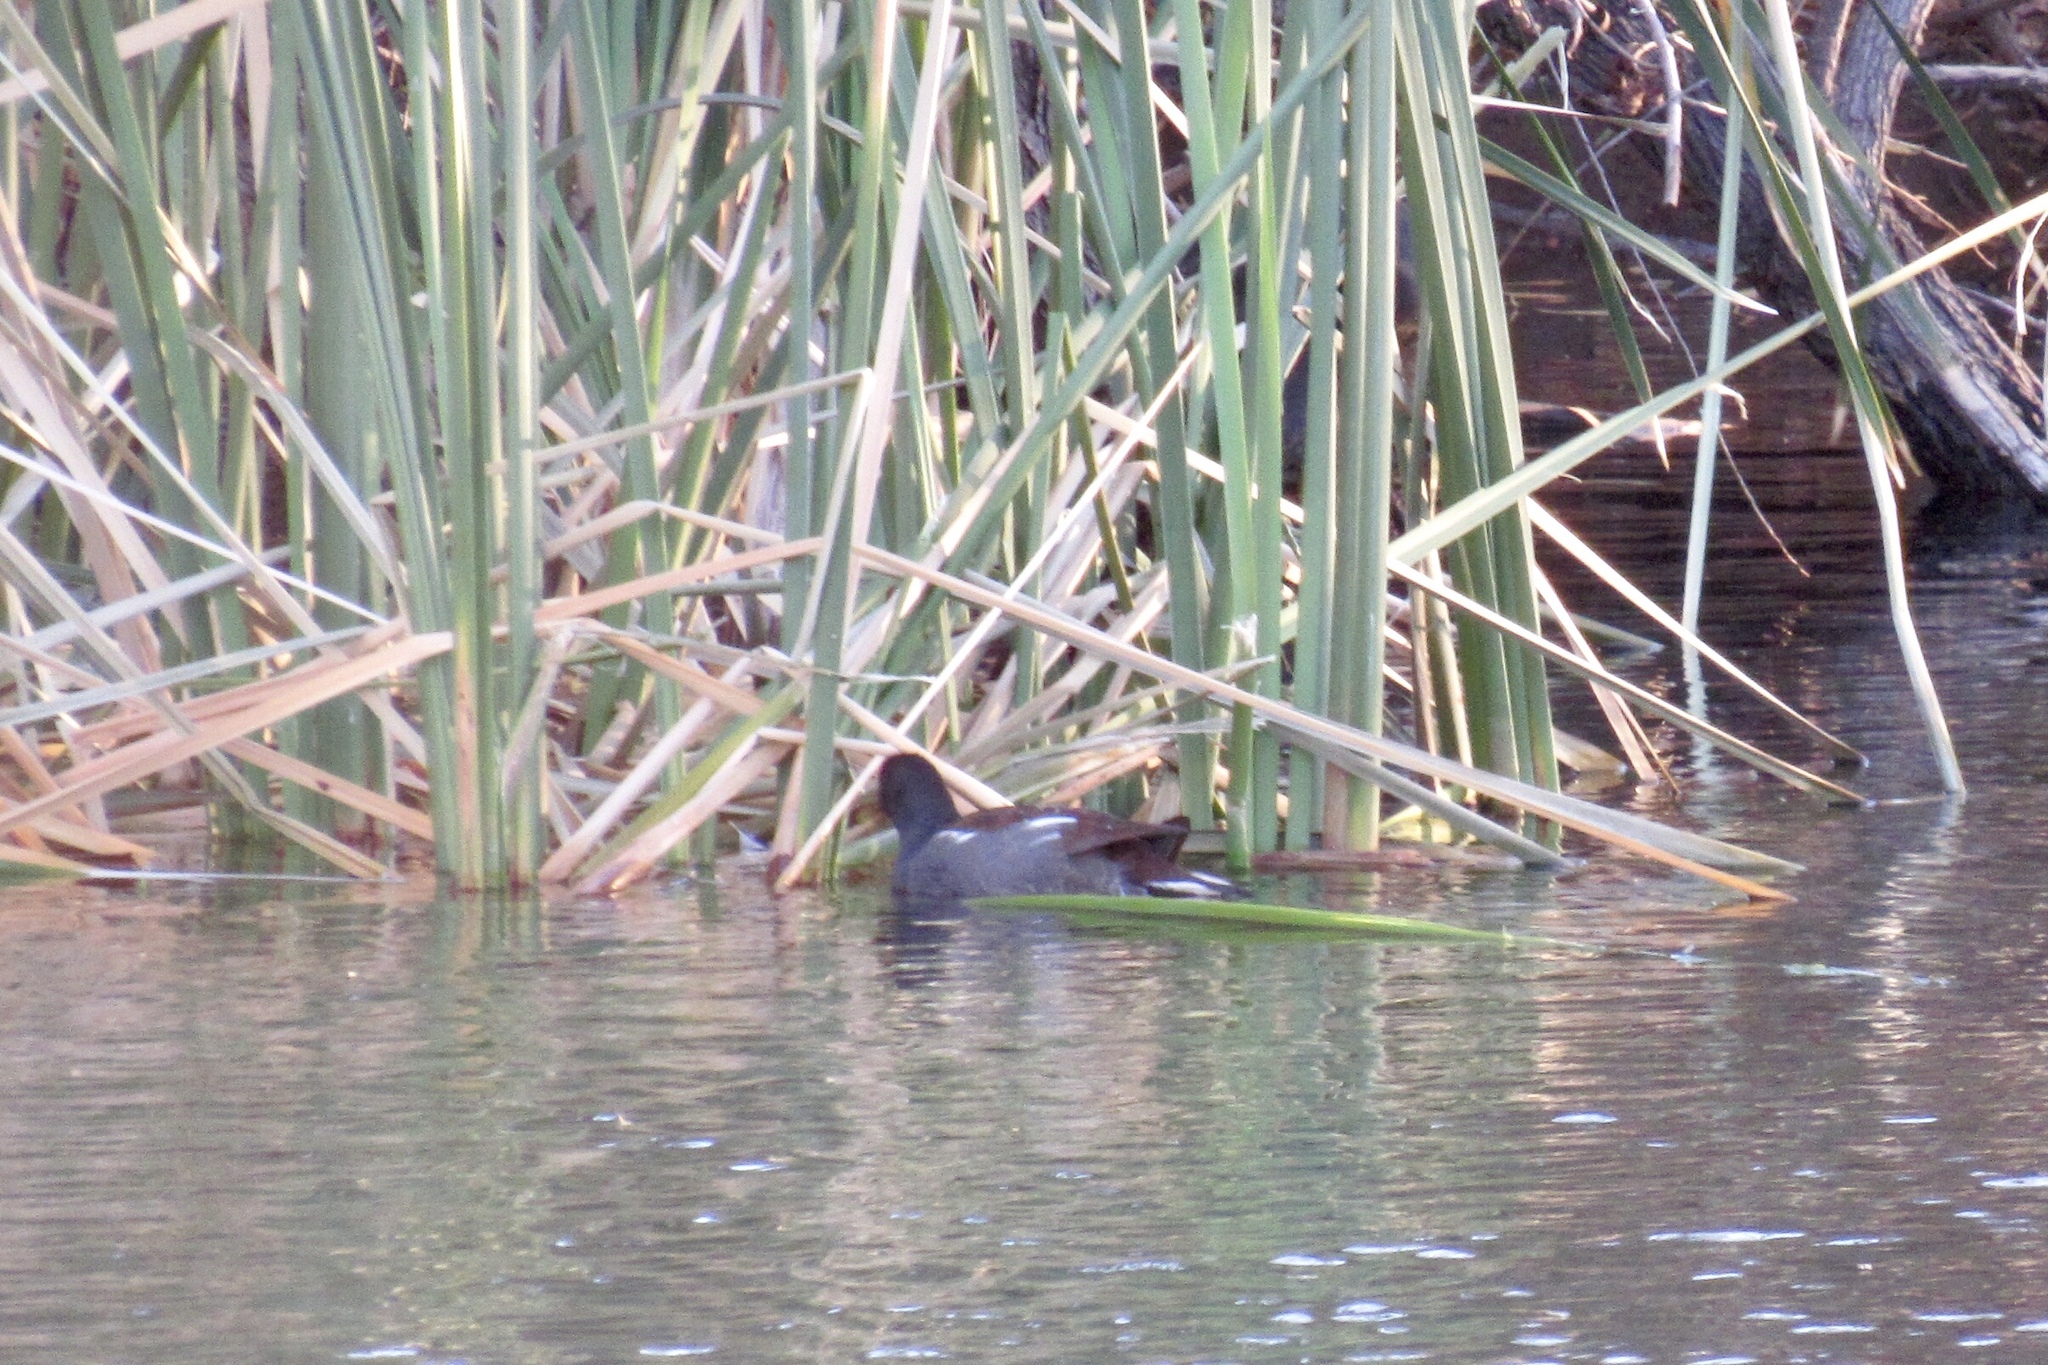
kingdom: Animalia
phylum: Chordata
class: Aves
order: Gruiformes
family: Rallidae
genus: Gallinula
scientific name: Gallinula chloropus
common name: Common moorhen
